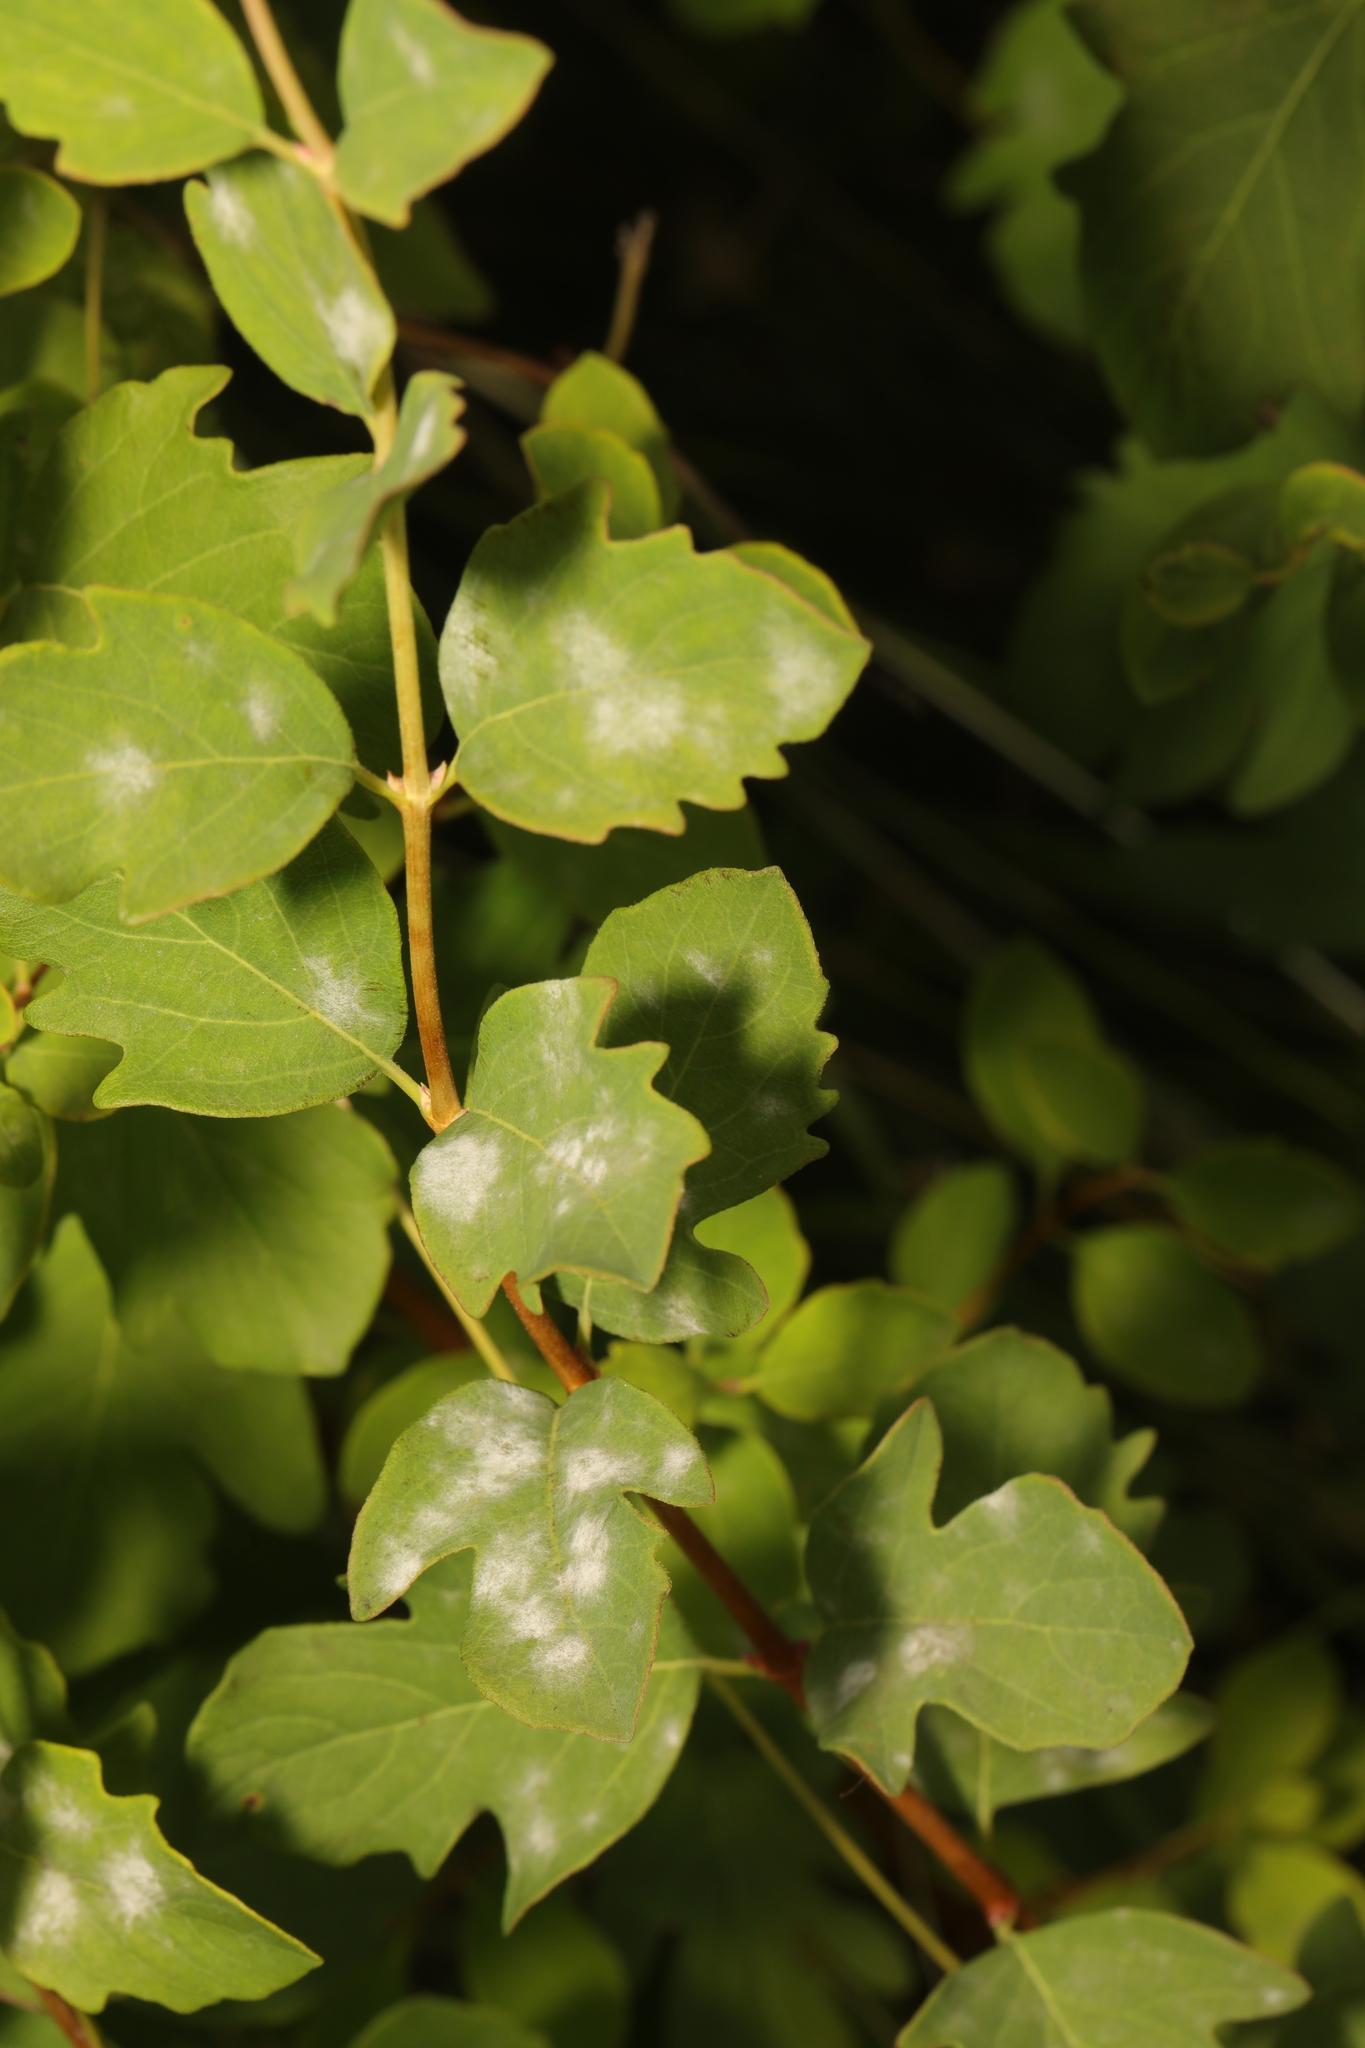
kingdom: Plantae
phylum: Tracheophyta
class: Magnoliopsida
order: Dipsacales
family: Caprifoliaceae
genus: Symphoricarpos
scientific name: Symphoricarpos albus
